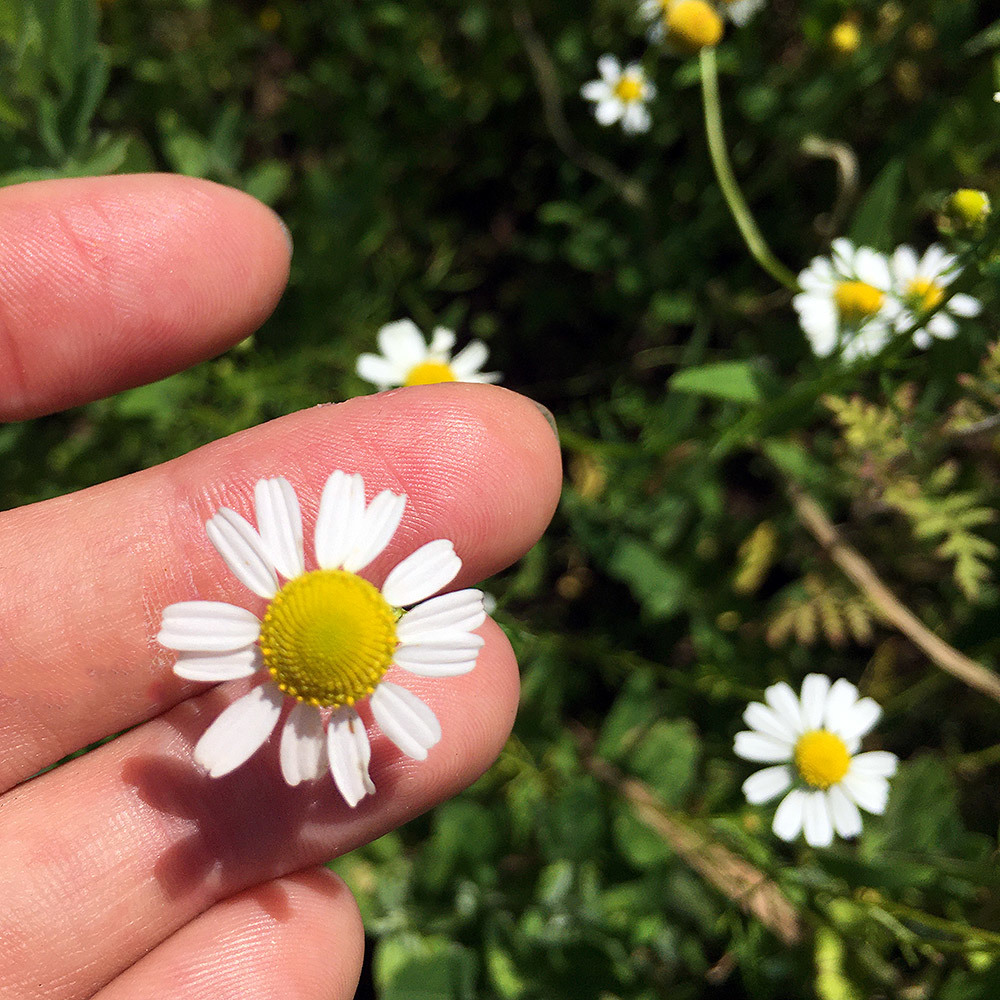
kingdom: Plantae
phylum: Tracheophyta
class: Magnoliopsida
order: Asterales
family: Asteraceae
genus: Matricaria
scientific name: Matricaria chamomilla
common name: Scented mayweed
